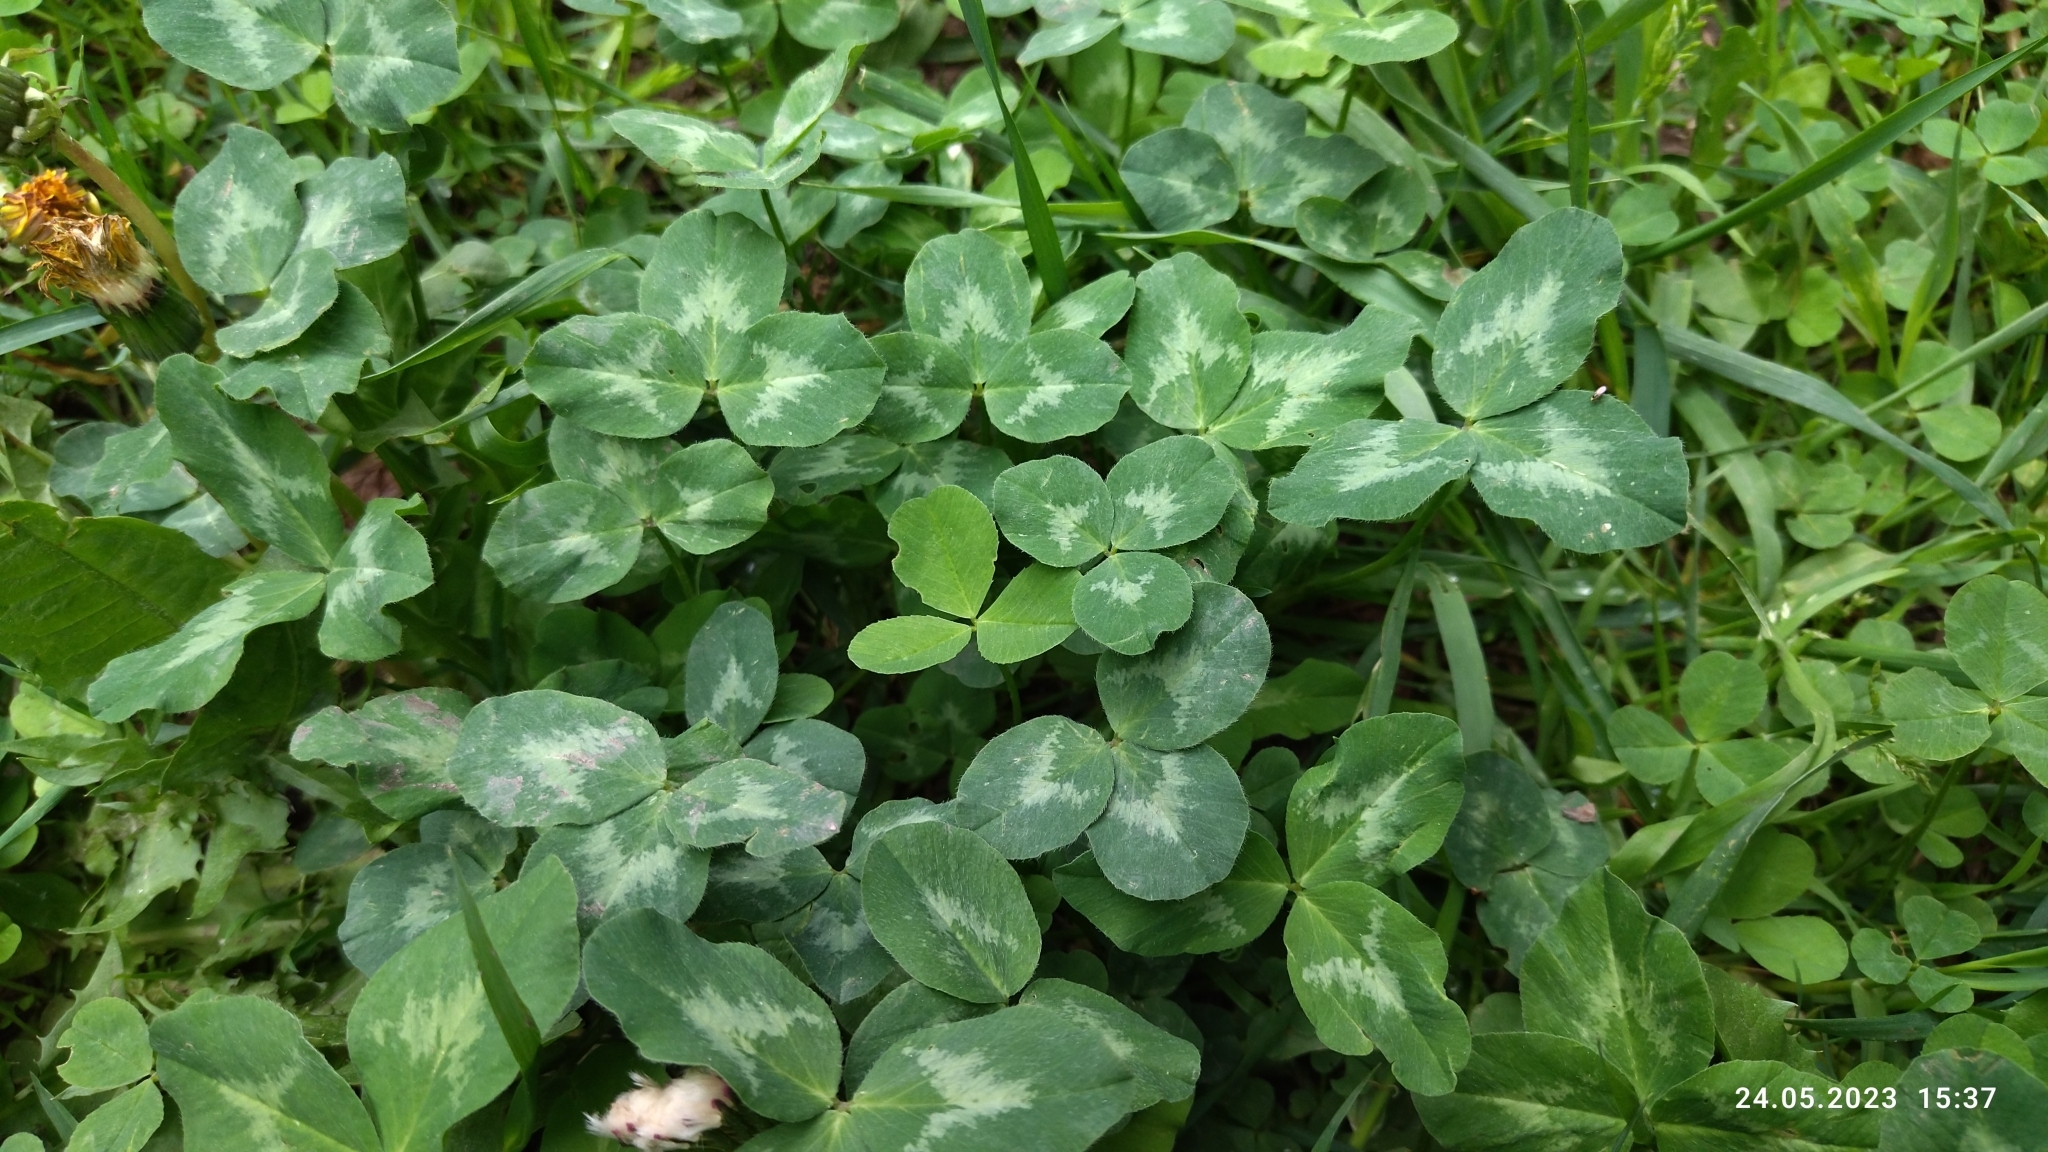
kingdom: Plantae
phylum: Tracheophyta
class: Magnoliopsida
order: Fabales
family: Fabaceae
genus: Trifolium
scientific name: Trifolium pratense
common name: Red clover
